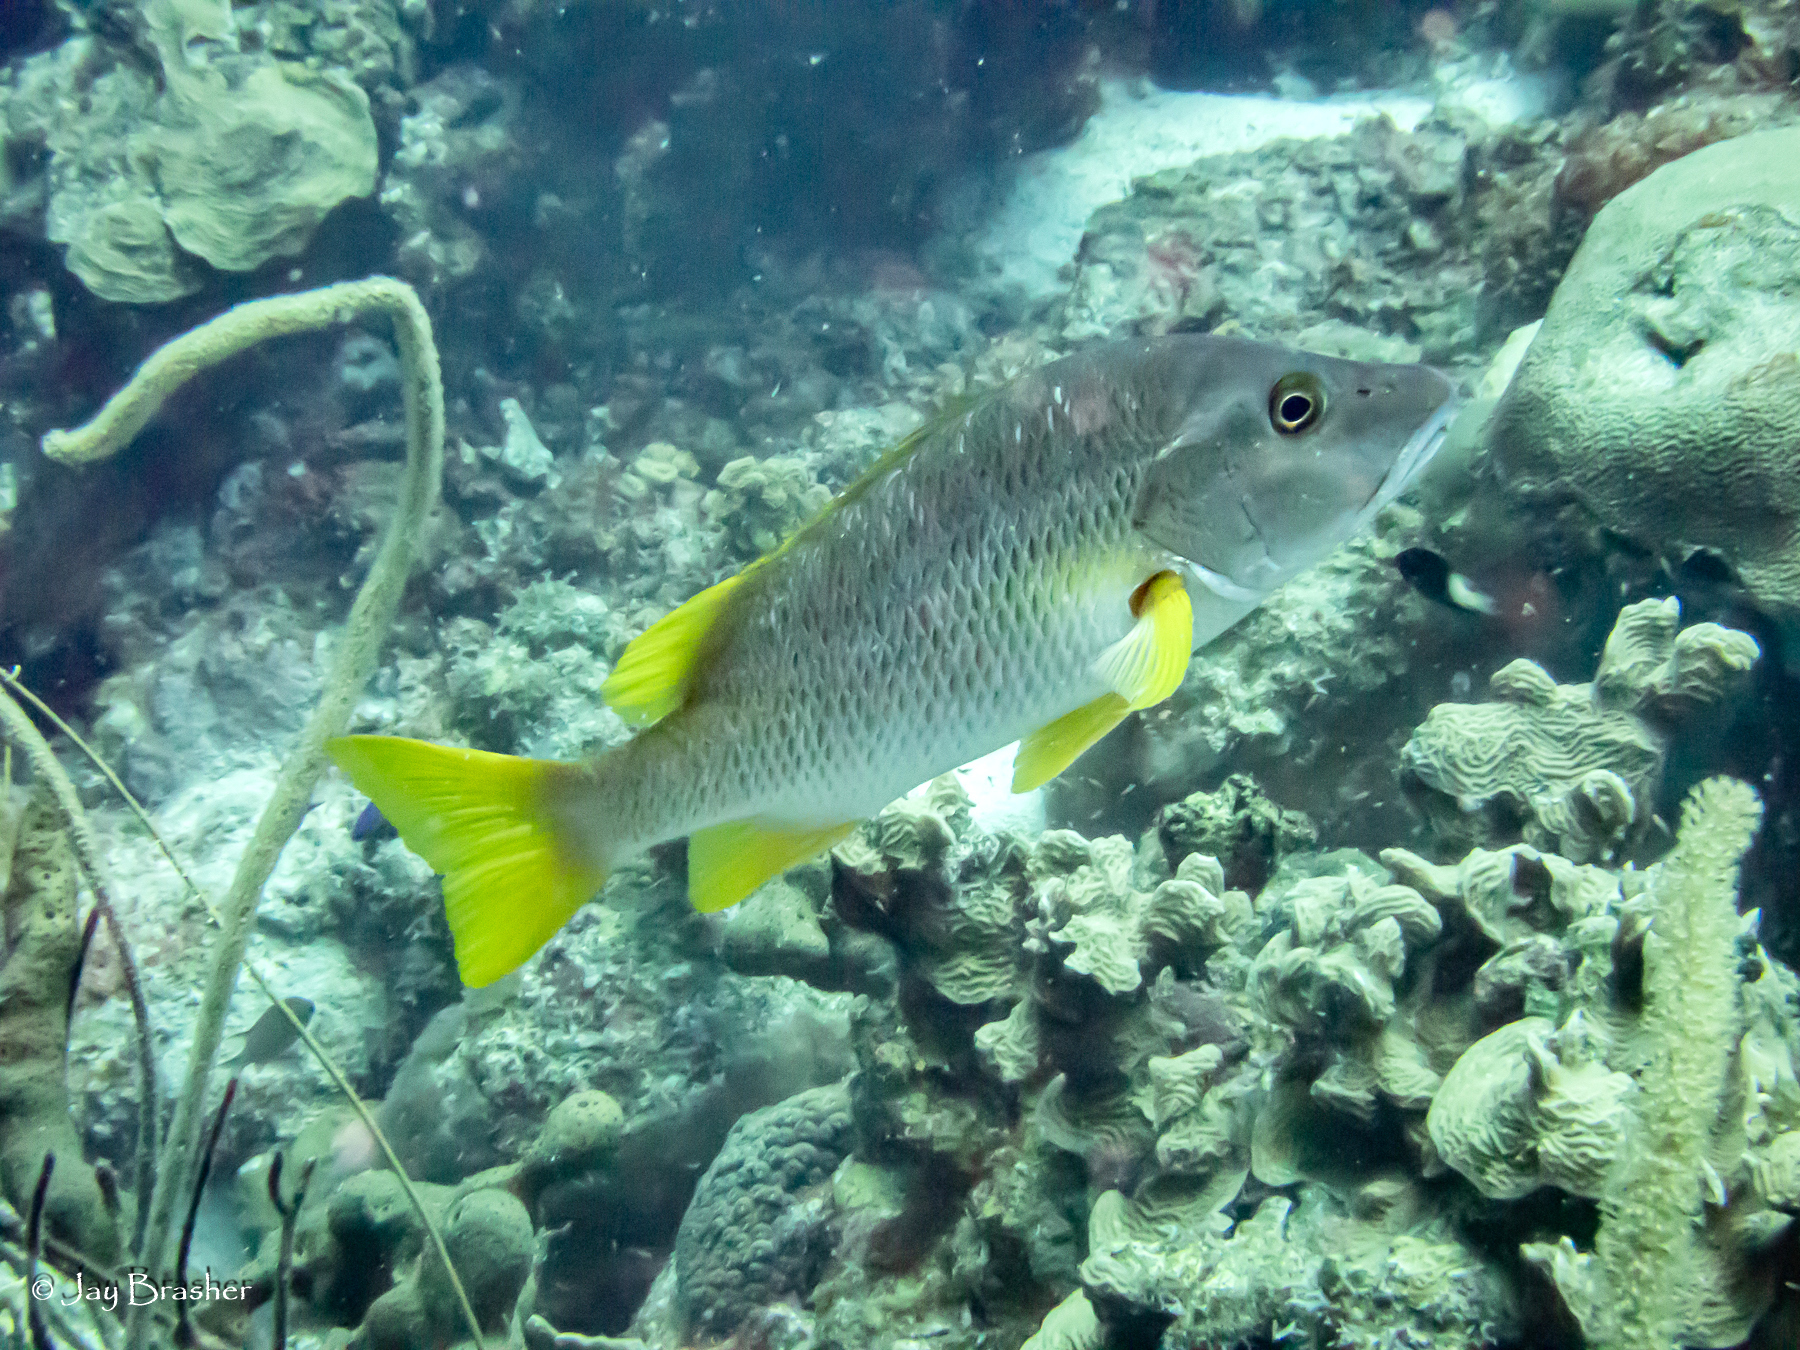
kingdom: Animalia
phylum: Chordata
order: Perciformes
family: Lutjanidae
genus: Lutjanus
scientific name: Lutjanus apodus
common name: Schoolmaster
